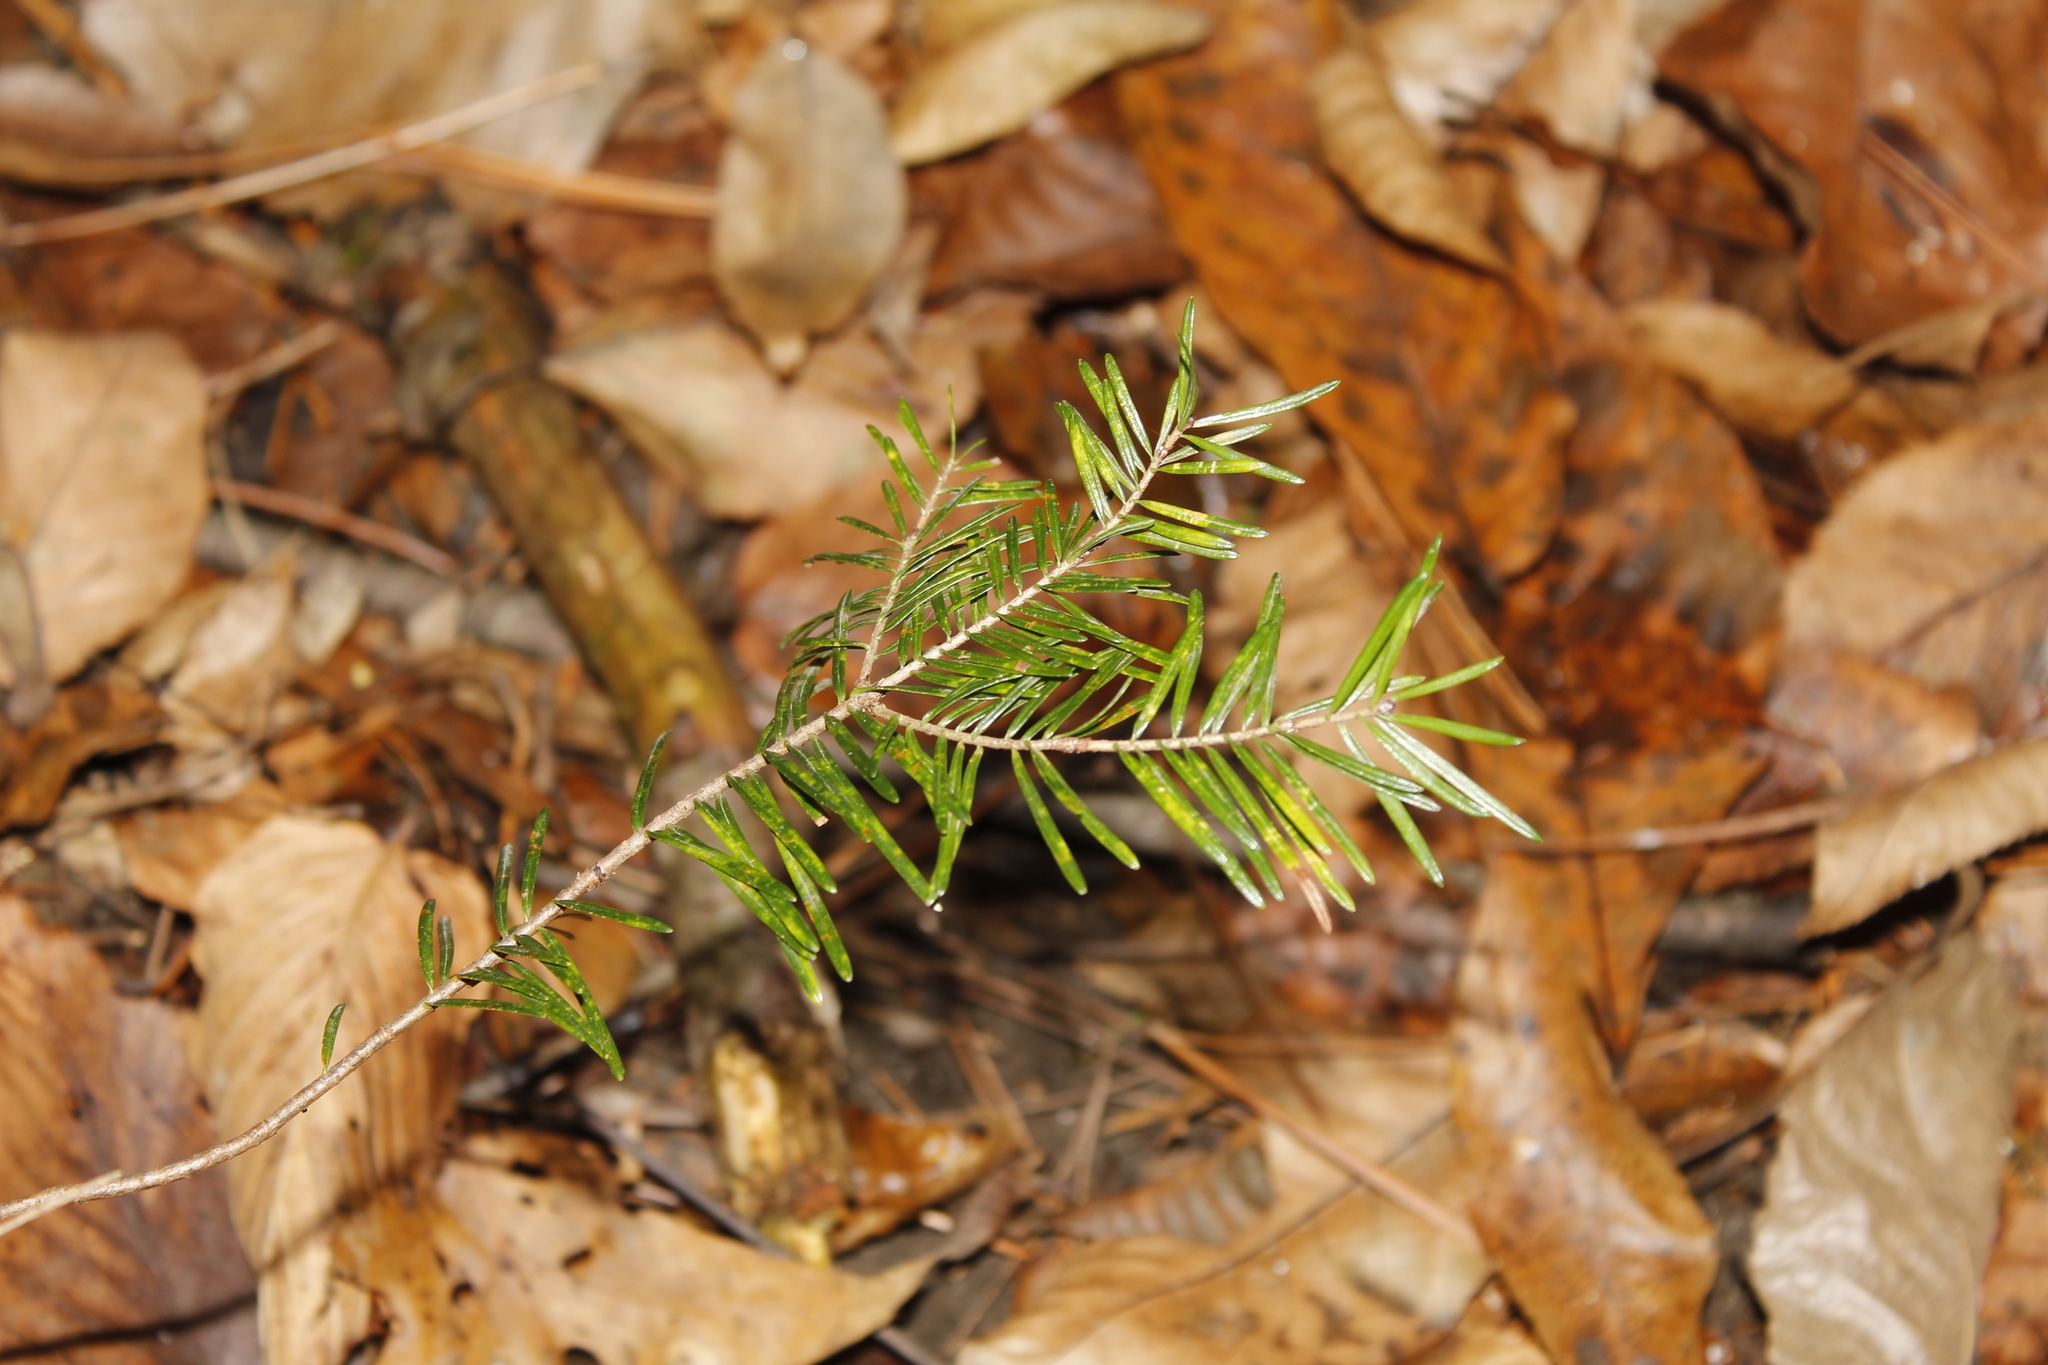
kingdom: Plantae
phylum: Tracheophyta
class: Pinopsida
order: Pinales
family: Pinaceae
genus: Abies
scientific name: Abies balsamea
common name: Balsam fir
